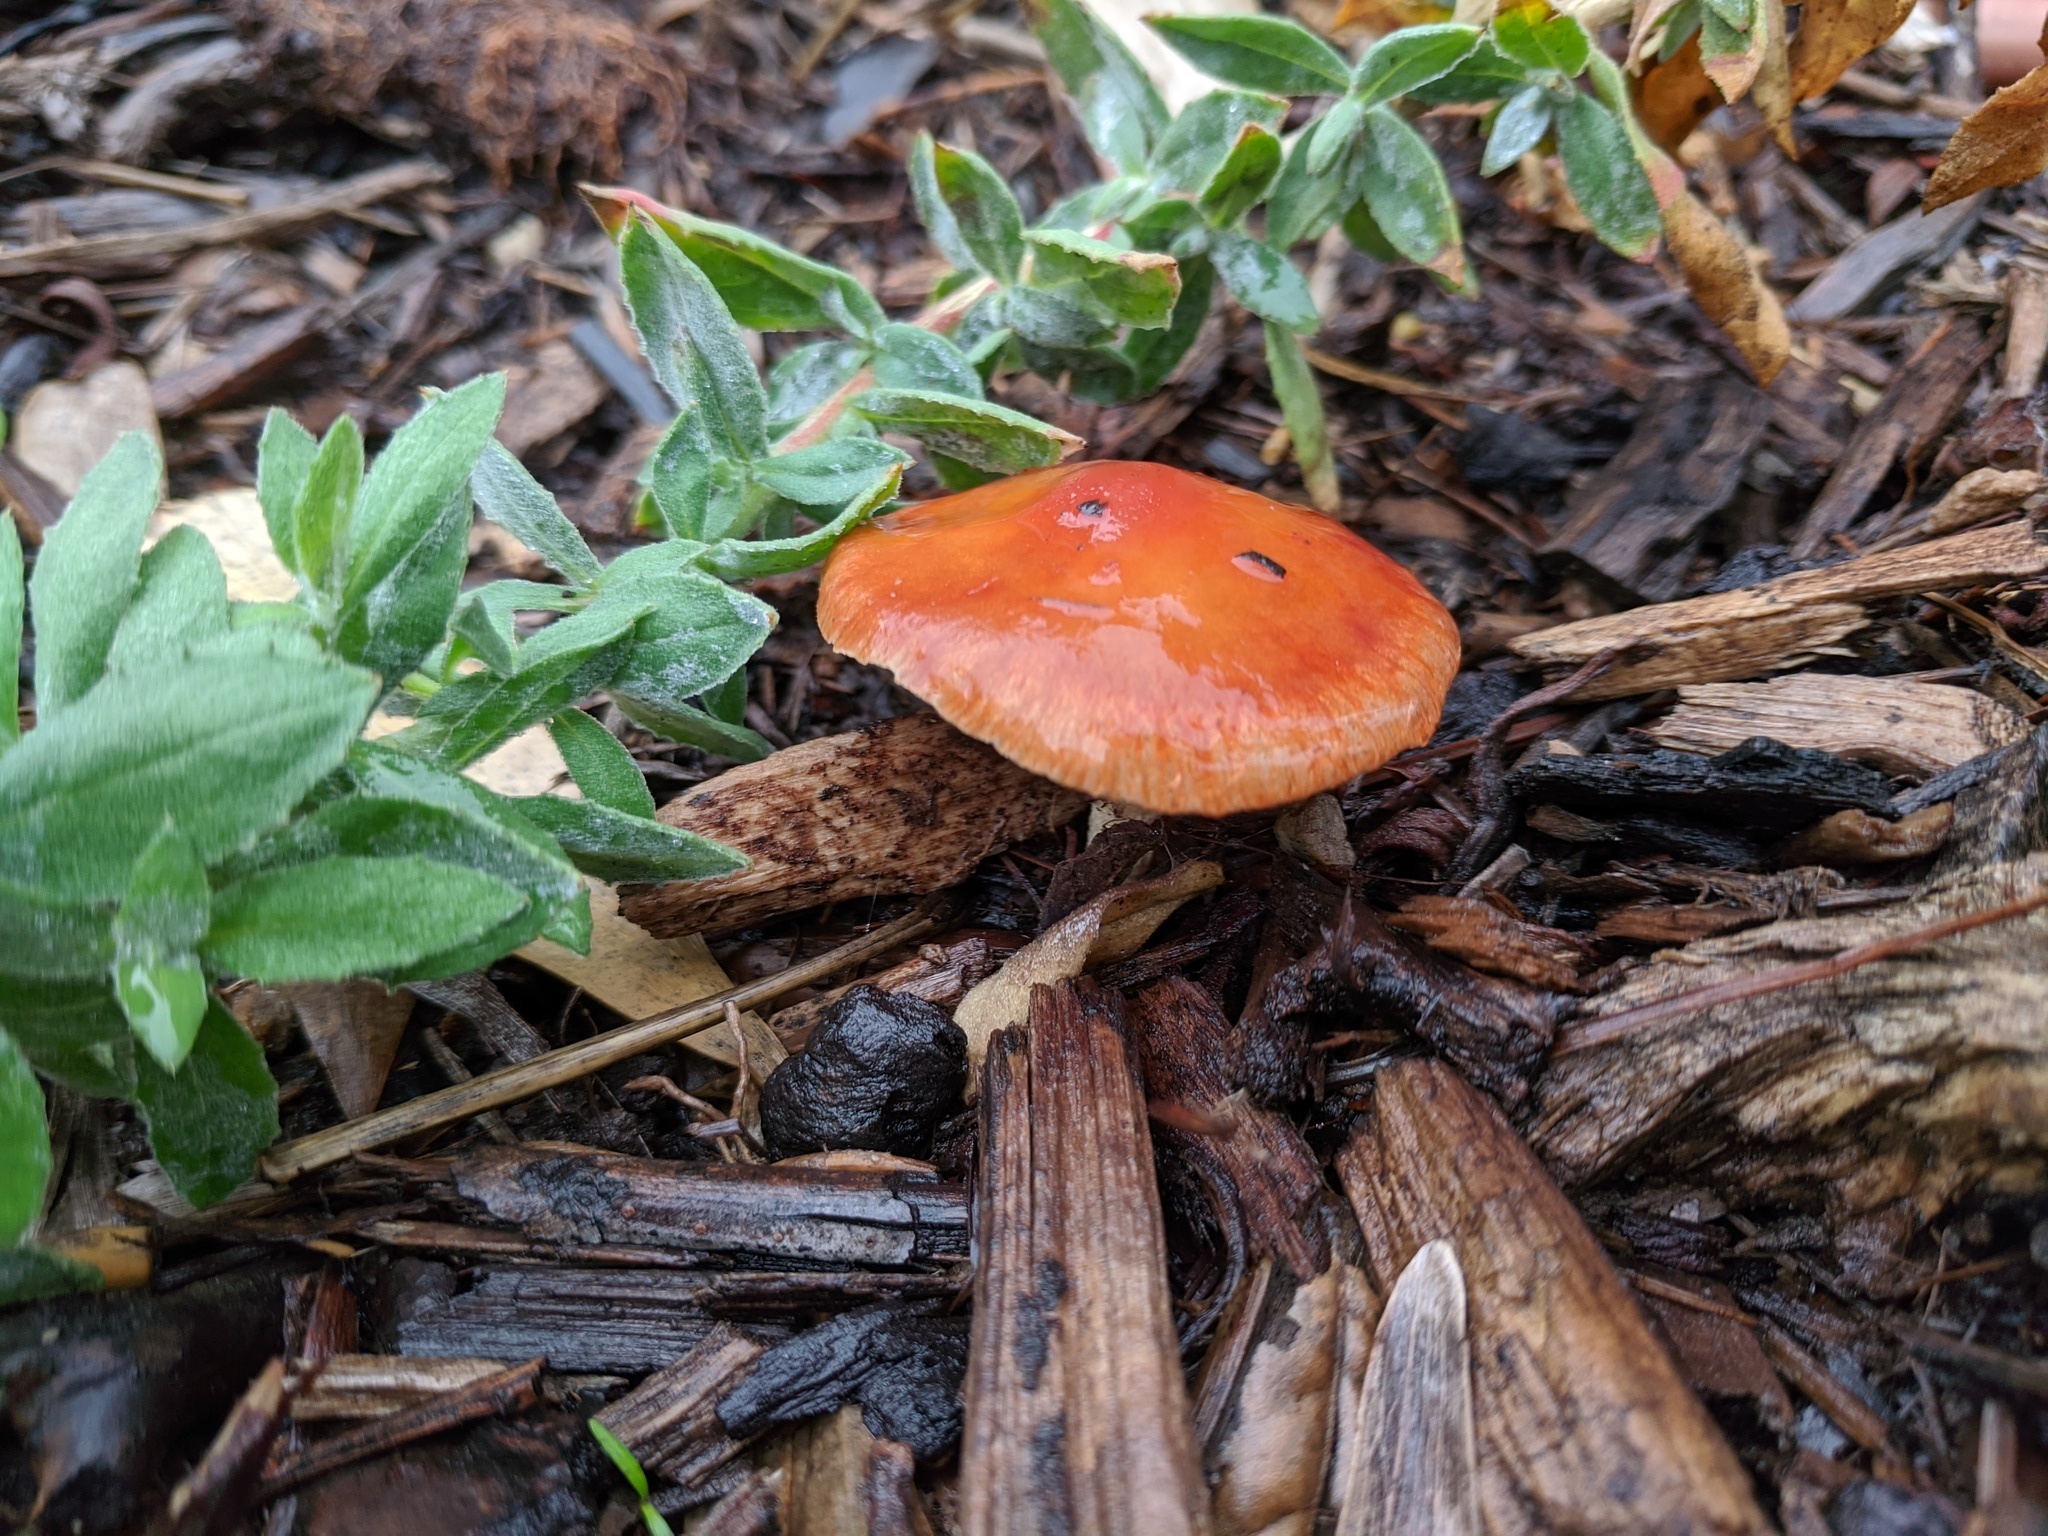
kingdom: Fungi
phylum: Basidiomycota
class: Agaricomycetes
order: Agaricales
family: Strophariaceae
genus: Leratiomyces
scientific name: Leratiomyces ceres
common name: Redlead roundhead
